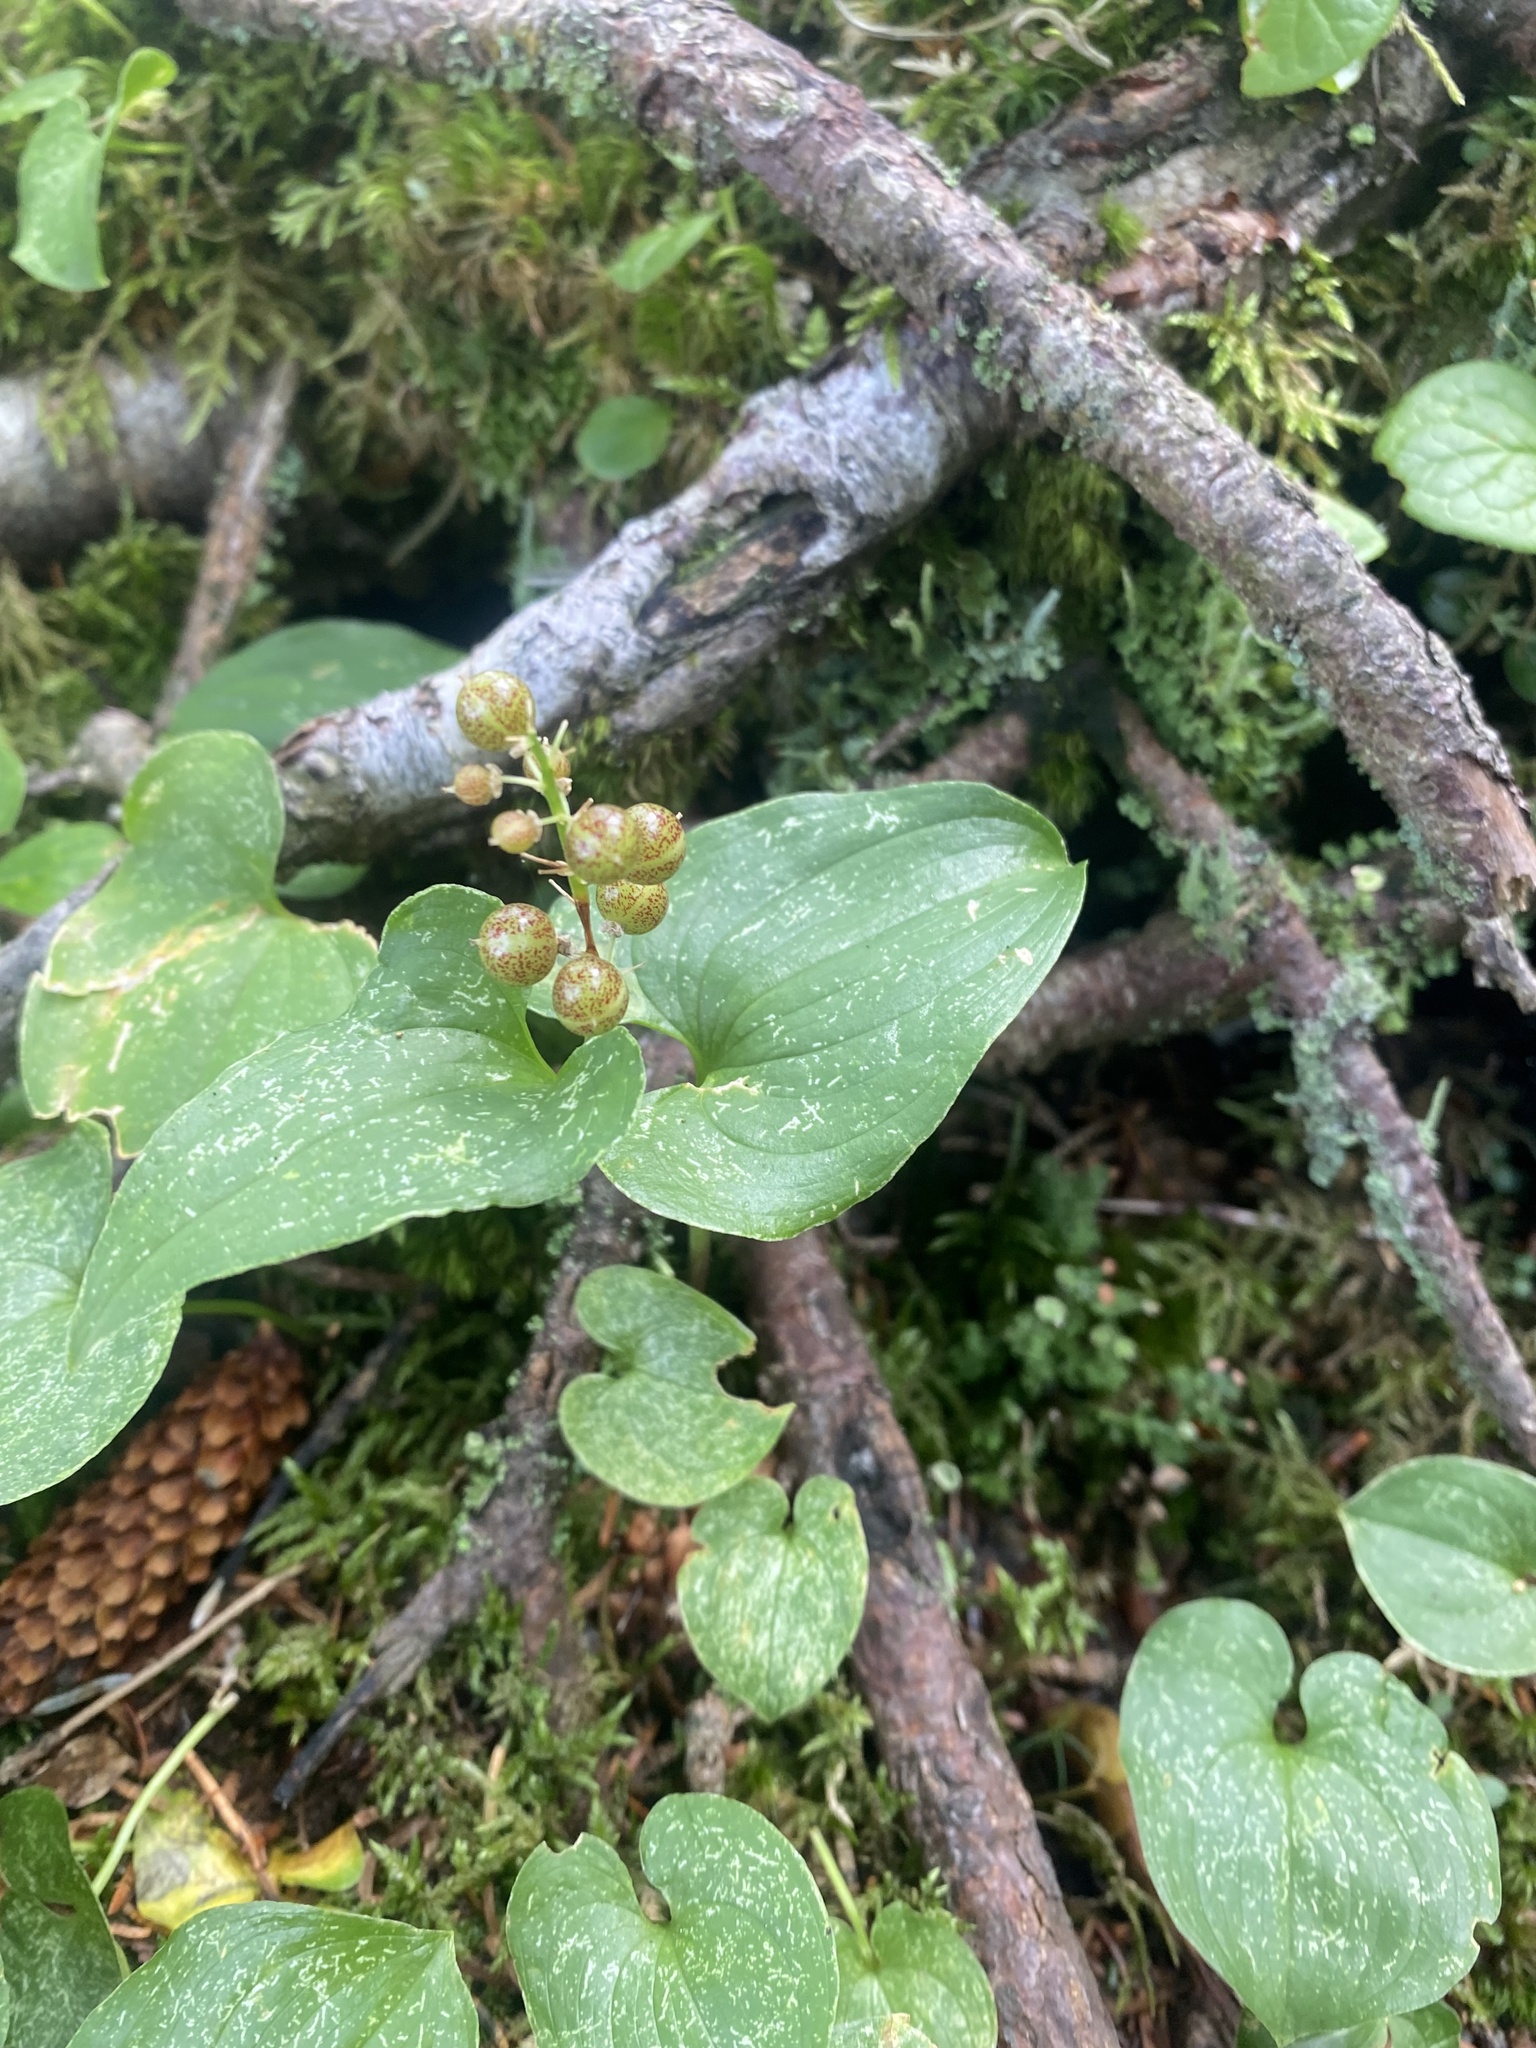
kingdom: Plantae
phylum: Tracheophyta
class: Liliopsida
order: Asparagales
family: Asparagaceae
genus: Maianthemum
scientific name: Maianthemum dilatatum
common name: False lily-of-the-valley
